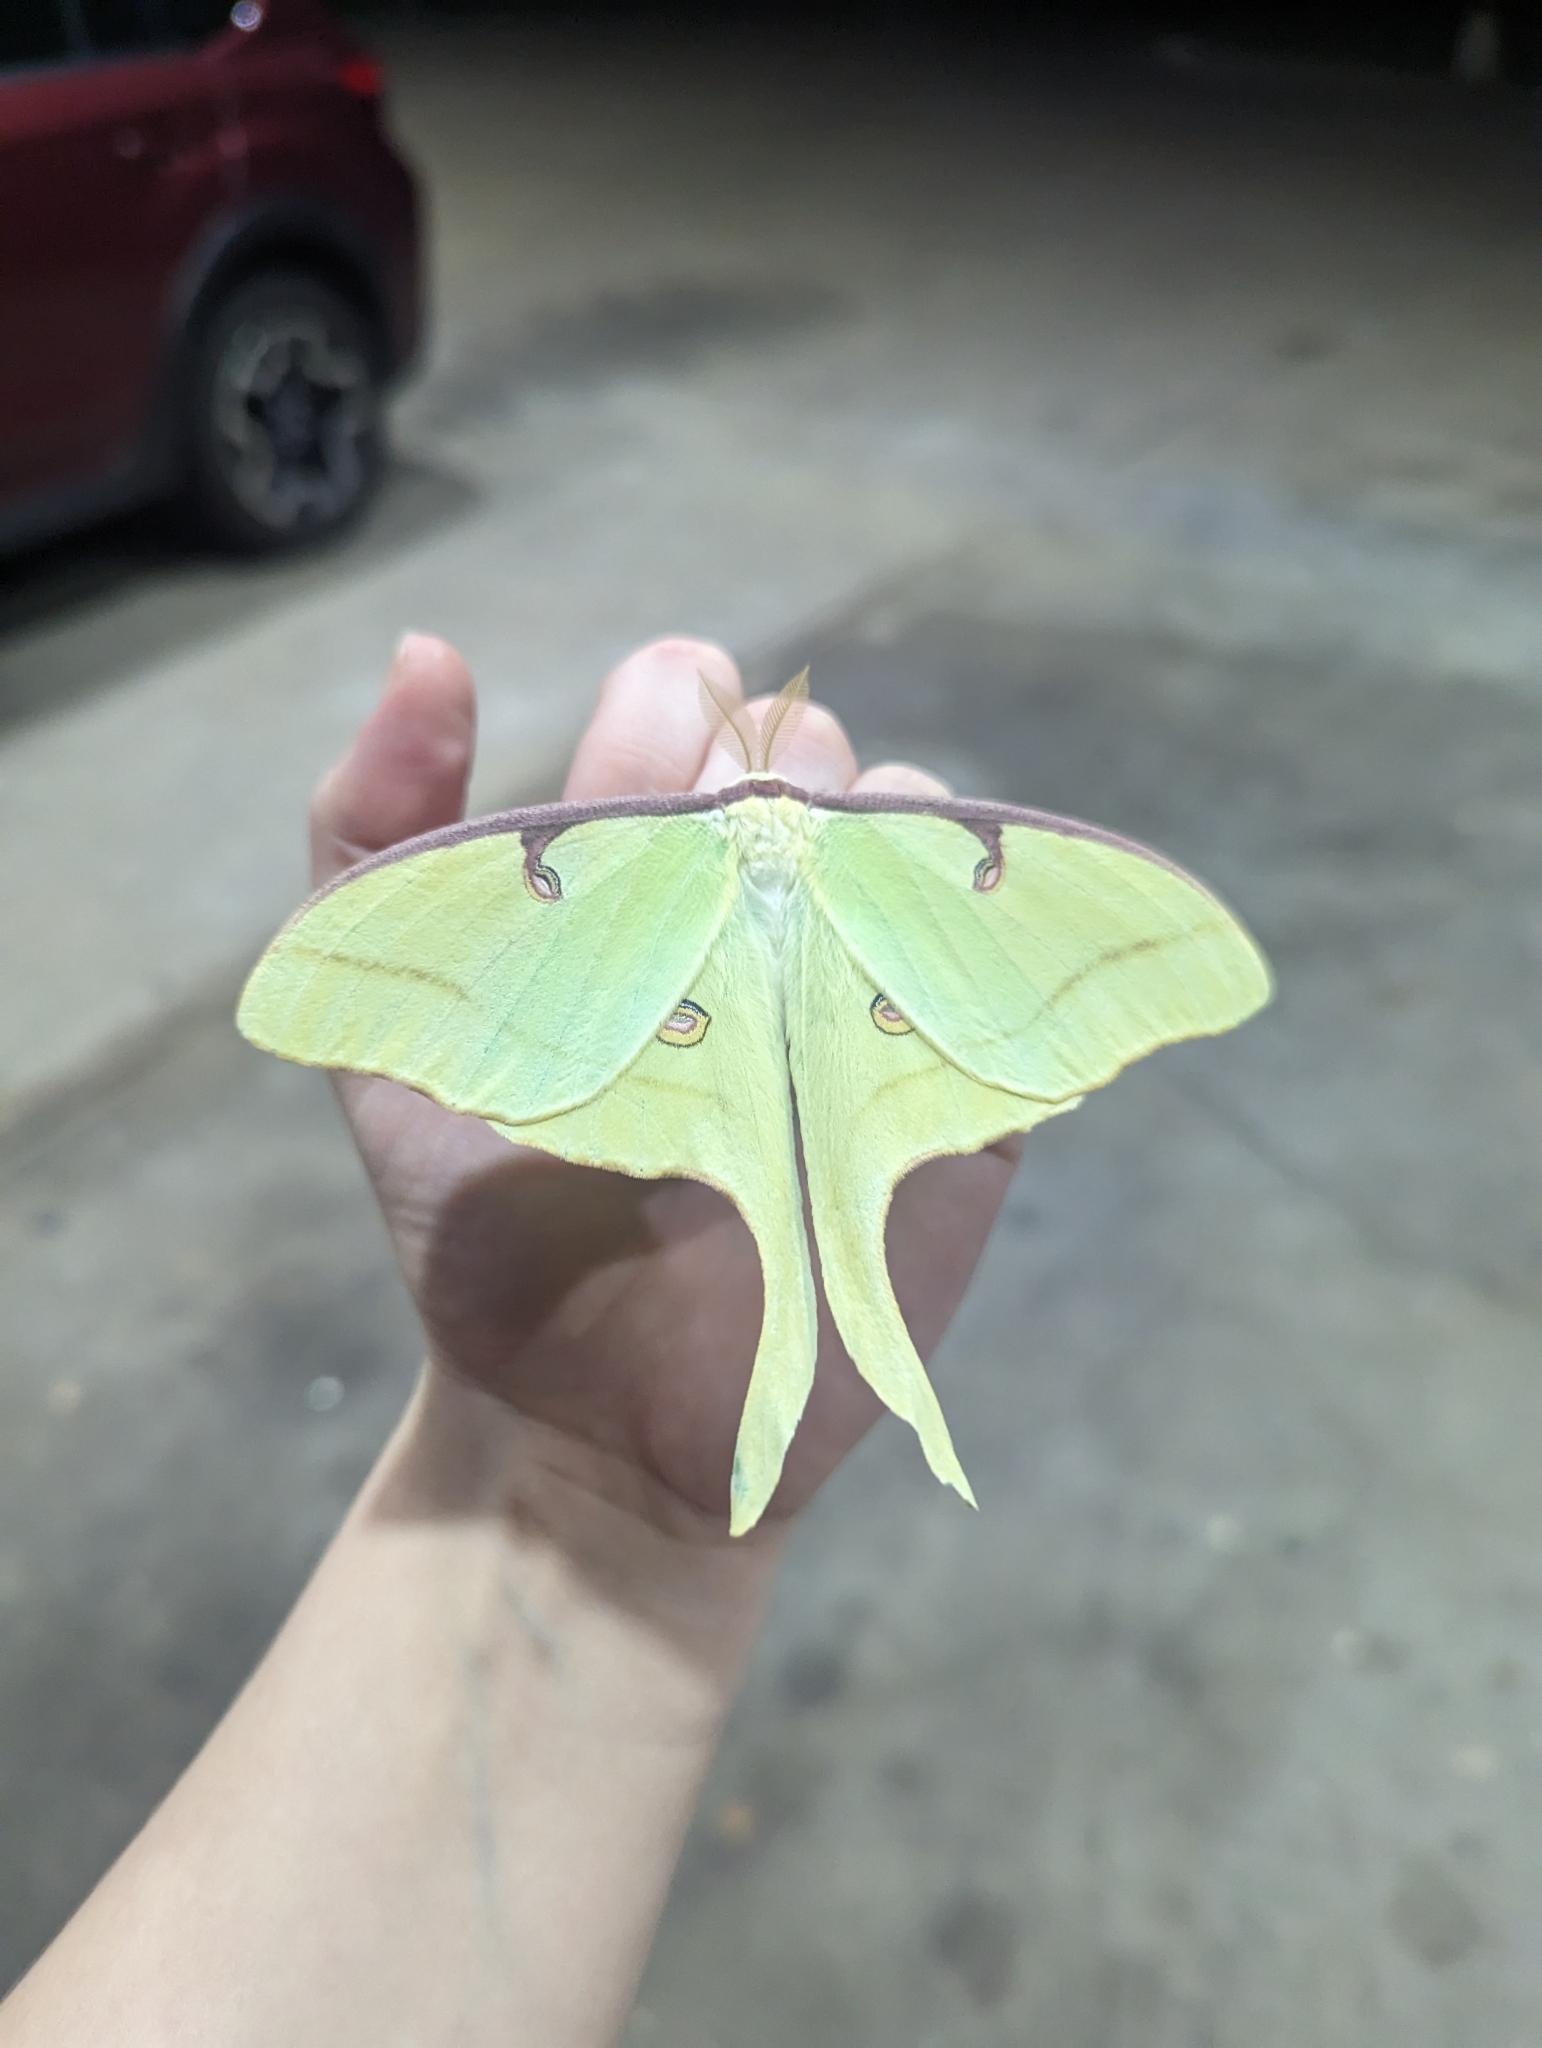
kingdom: Animalia
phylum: Arthropoda
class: Insecta
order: Lepidoptera
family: Saturniidae
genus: Actias
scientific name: Actias luna
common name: Luna moth
